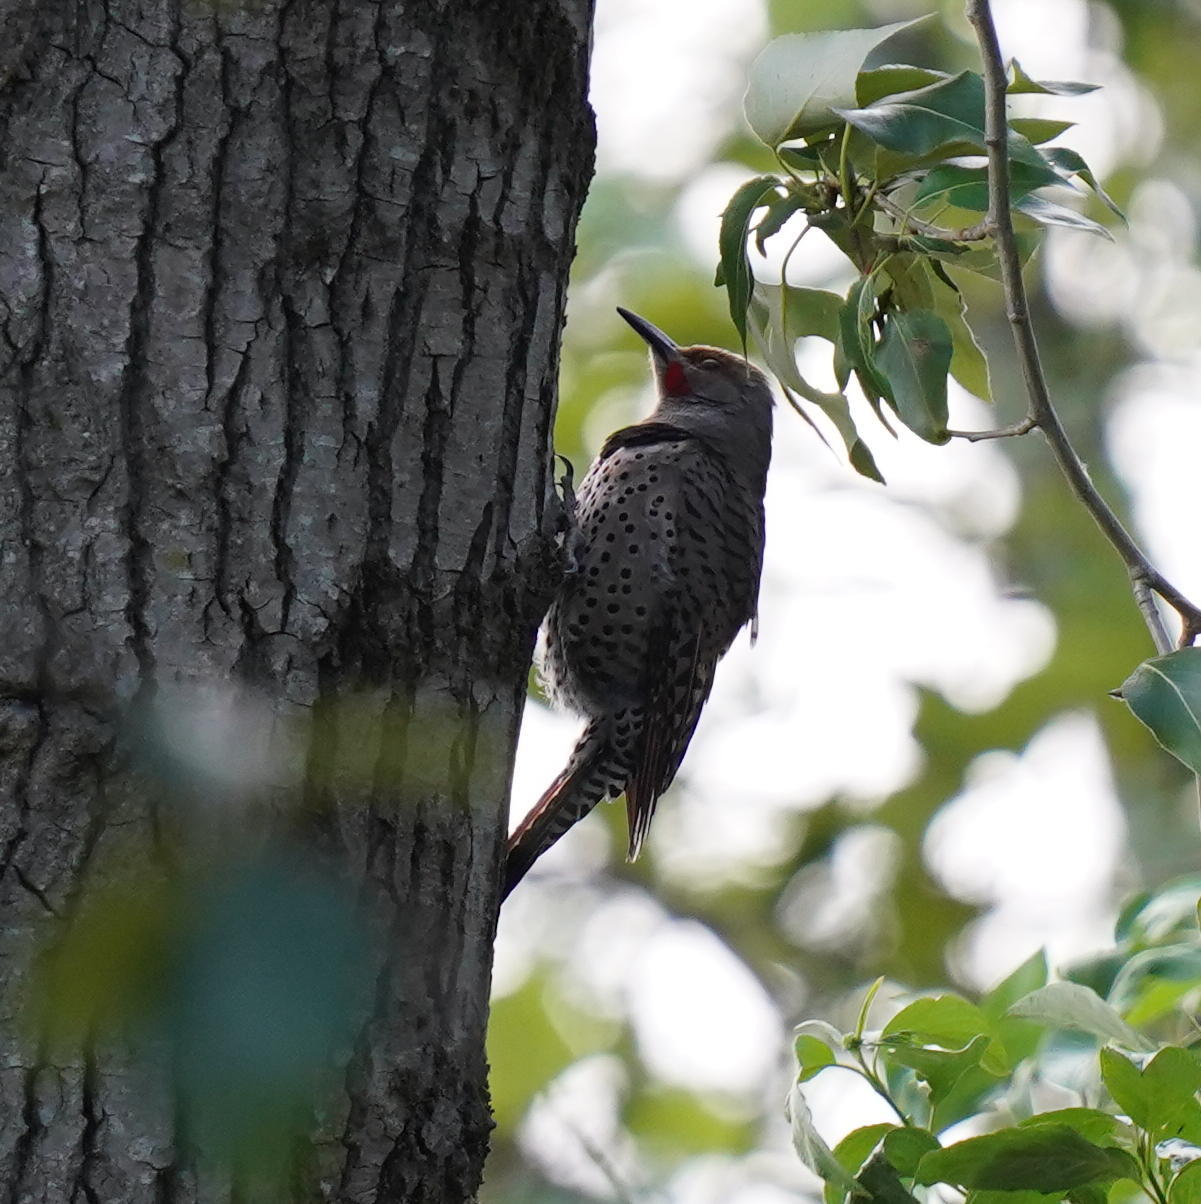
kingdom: Animalia
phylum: Chordata
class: Aves
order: Piciformes
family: Picidae
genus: Colaptes
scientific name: Colaptes auratus
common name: Northern flicker
